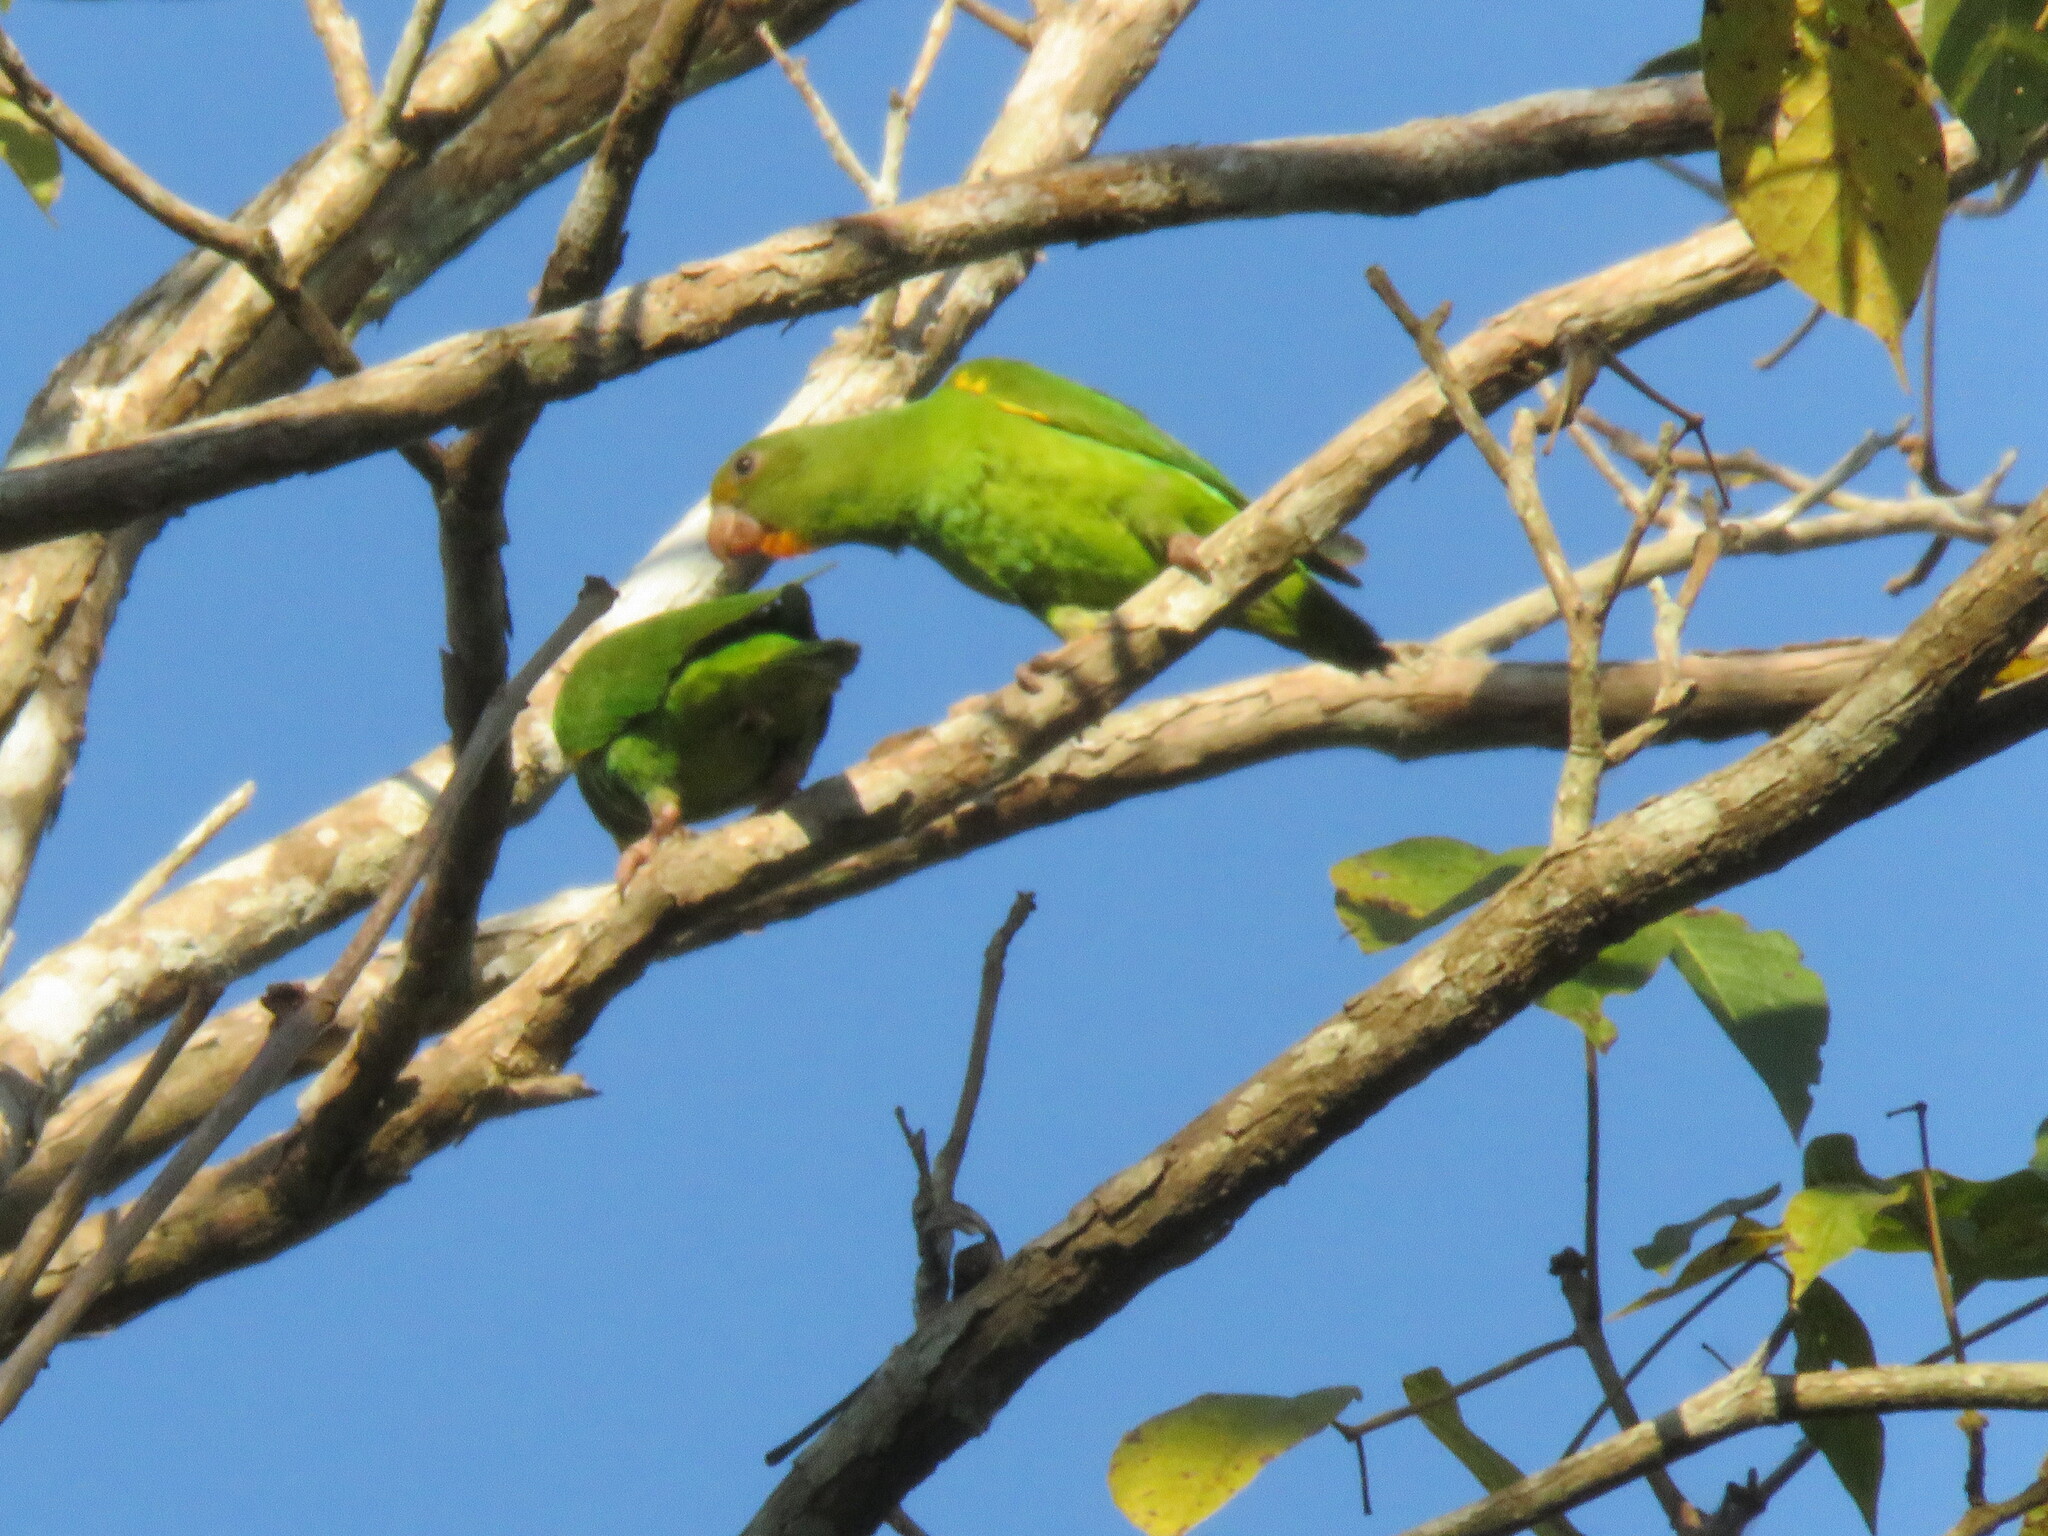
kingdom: Animalia
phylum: Chordata
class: Aves
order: Psittaciformes
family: Psittacidae
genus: Brotogeris
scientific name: Brotogeris cyanoptera
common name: Cobalt-winged parakeet
